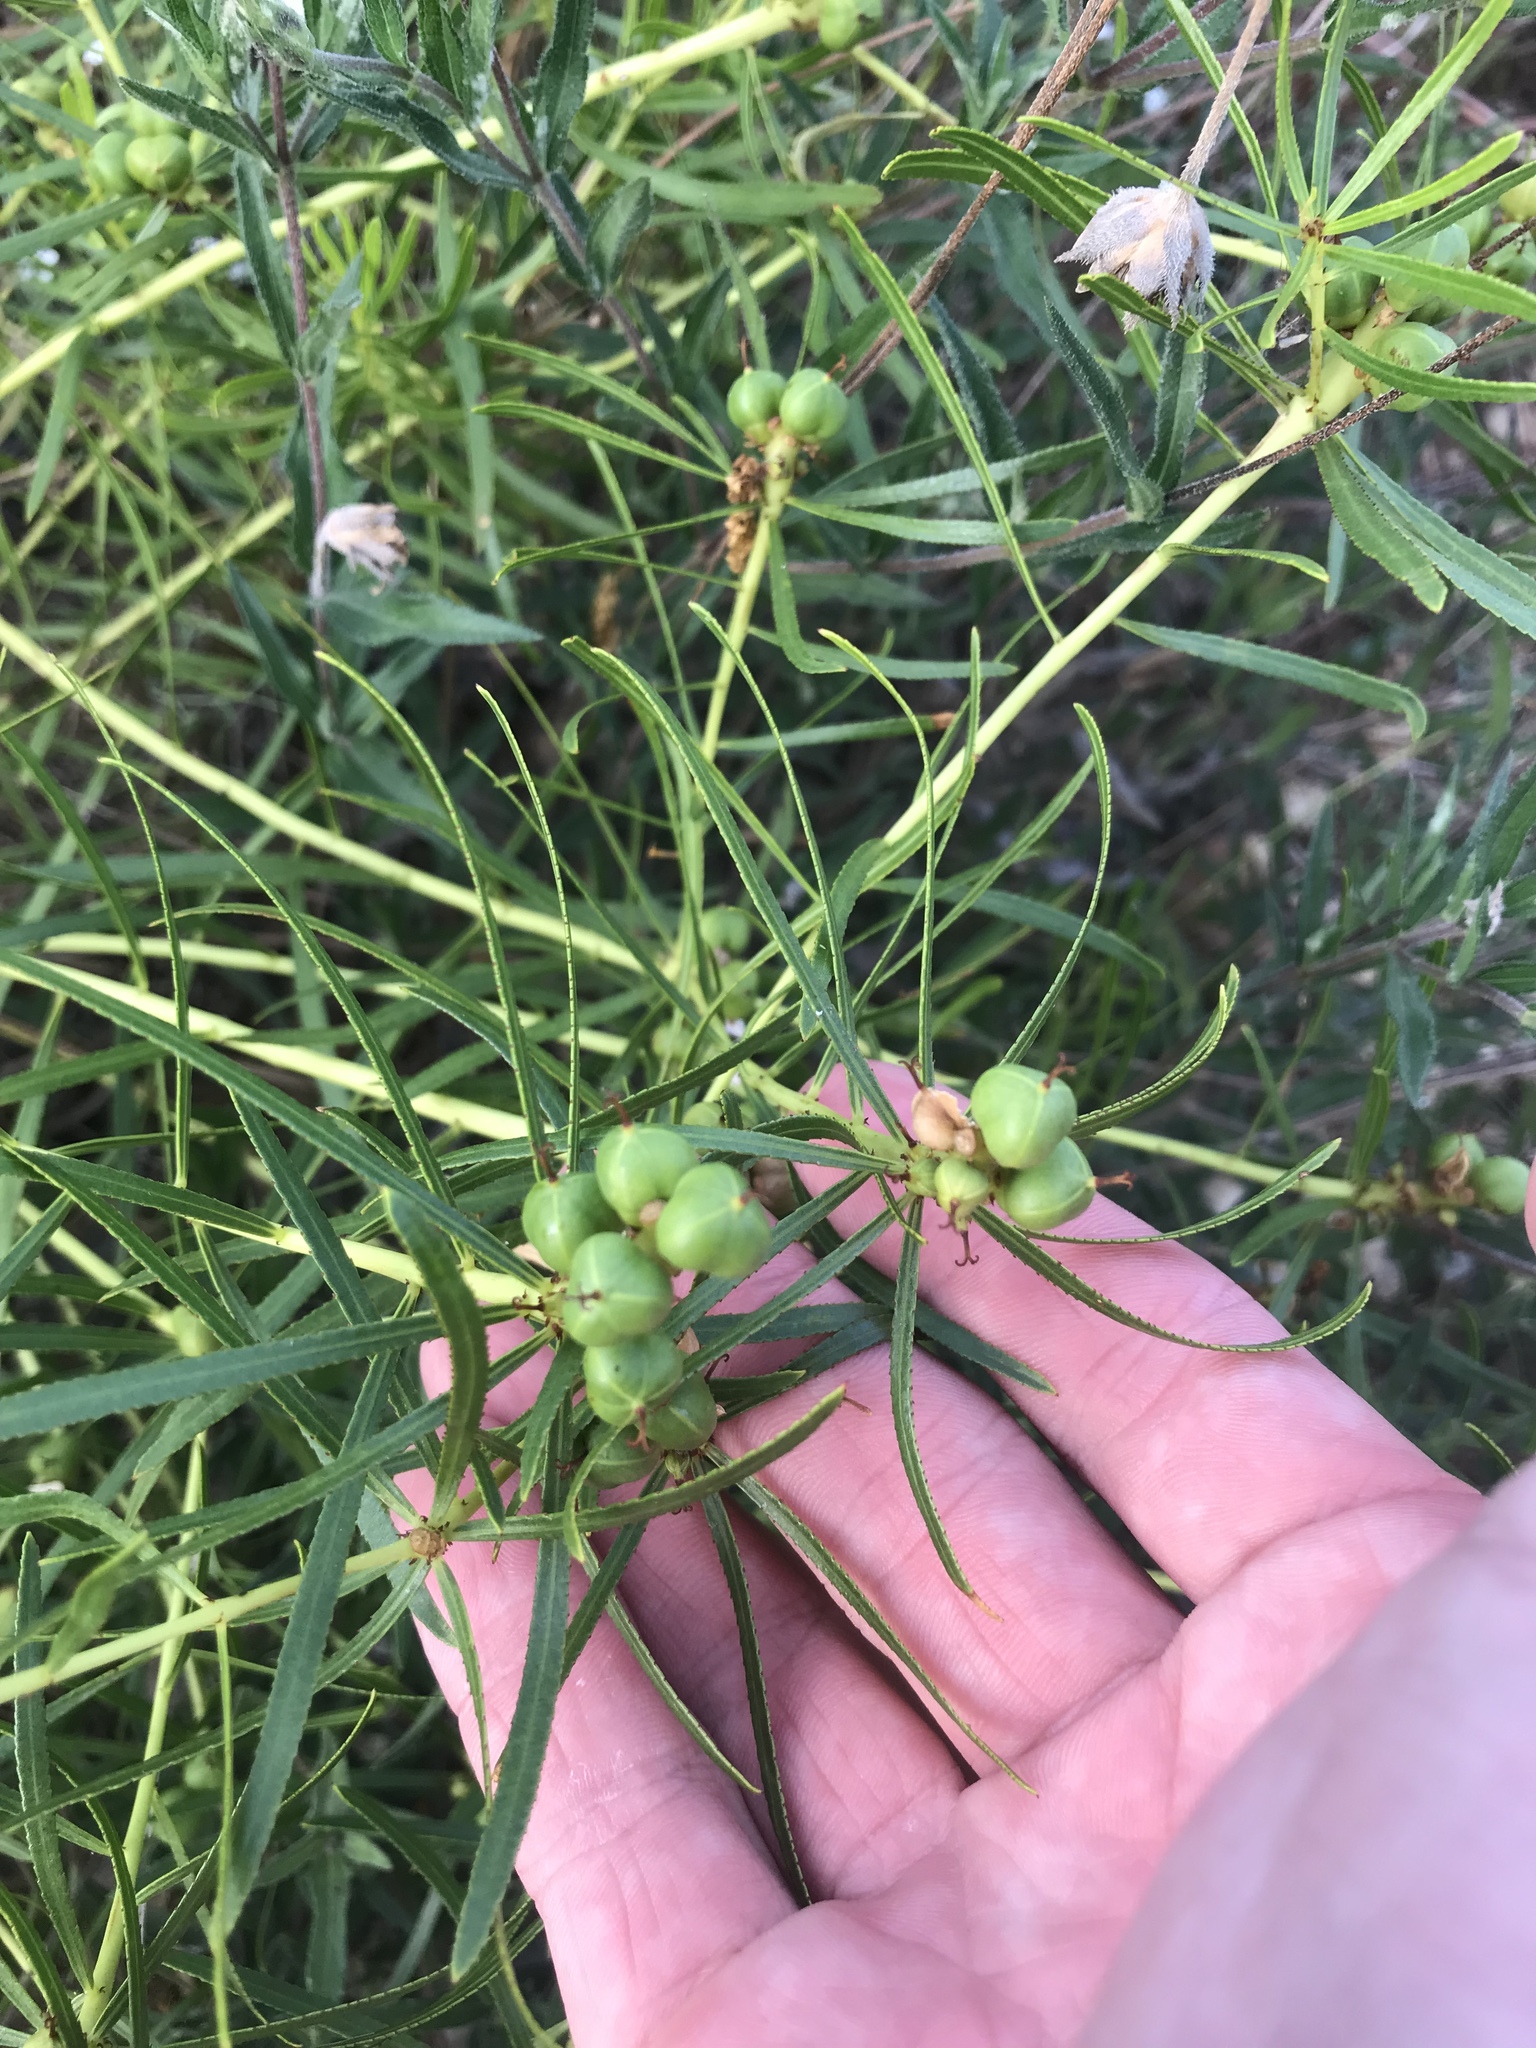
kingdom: Plantae
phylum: Tracheophyta
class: Magnoliopsida
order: Malpighiales
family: Euphorbiaceae
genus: Stillingia
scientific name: Stillingia texana
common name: Texas stillingia
